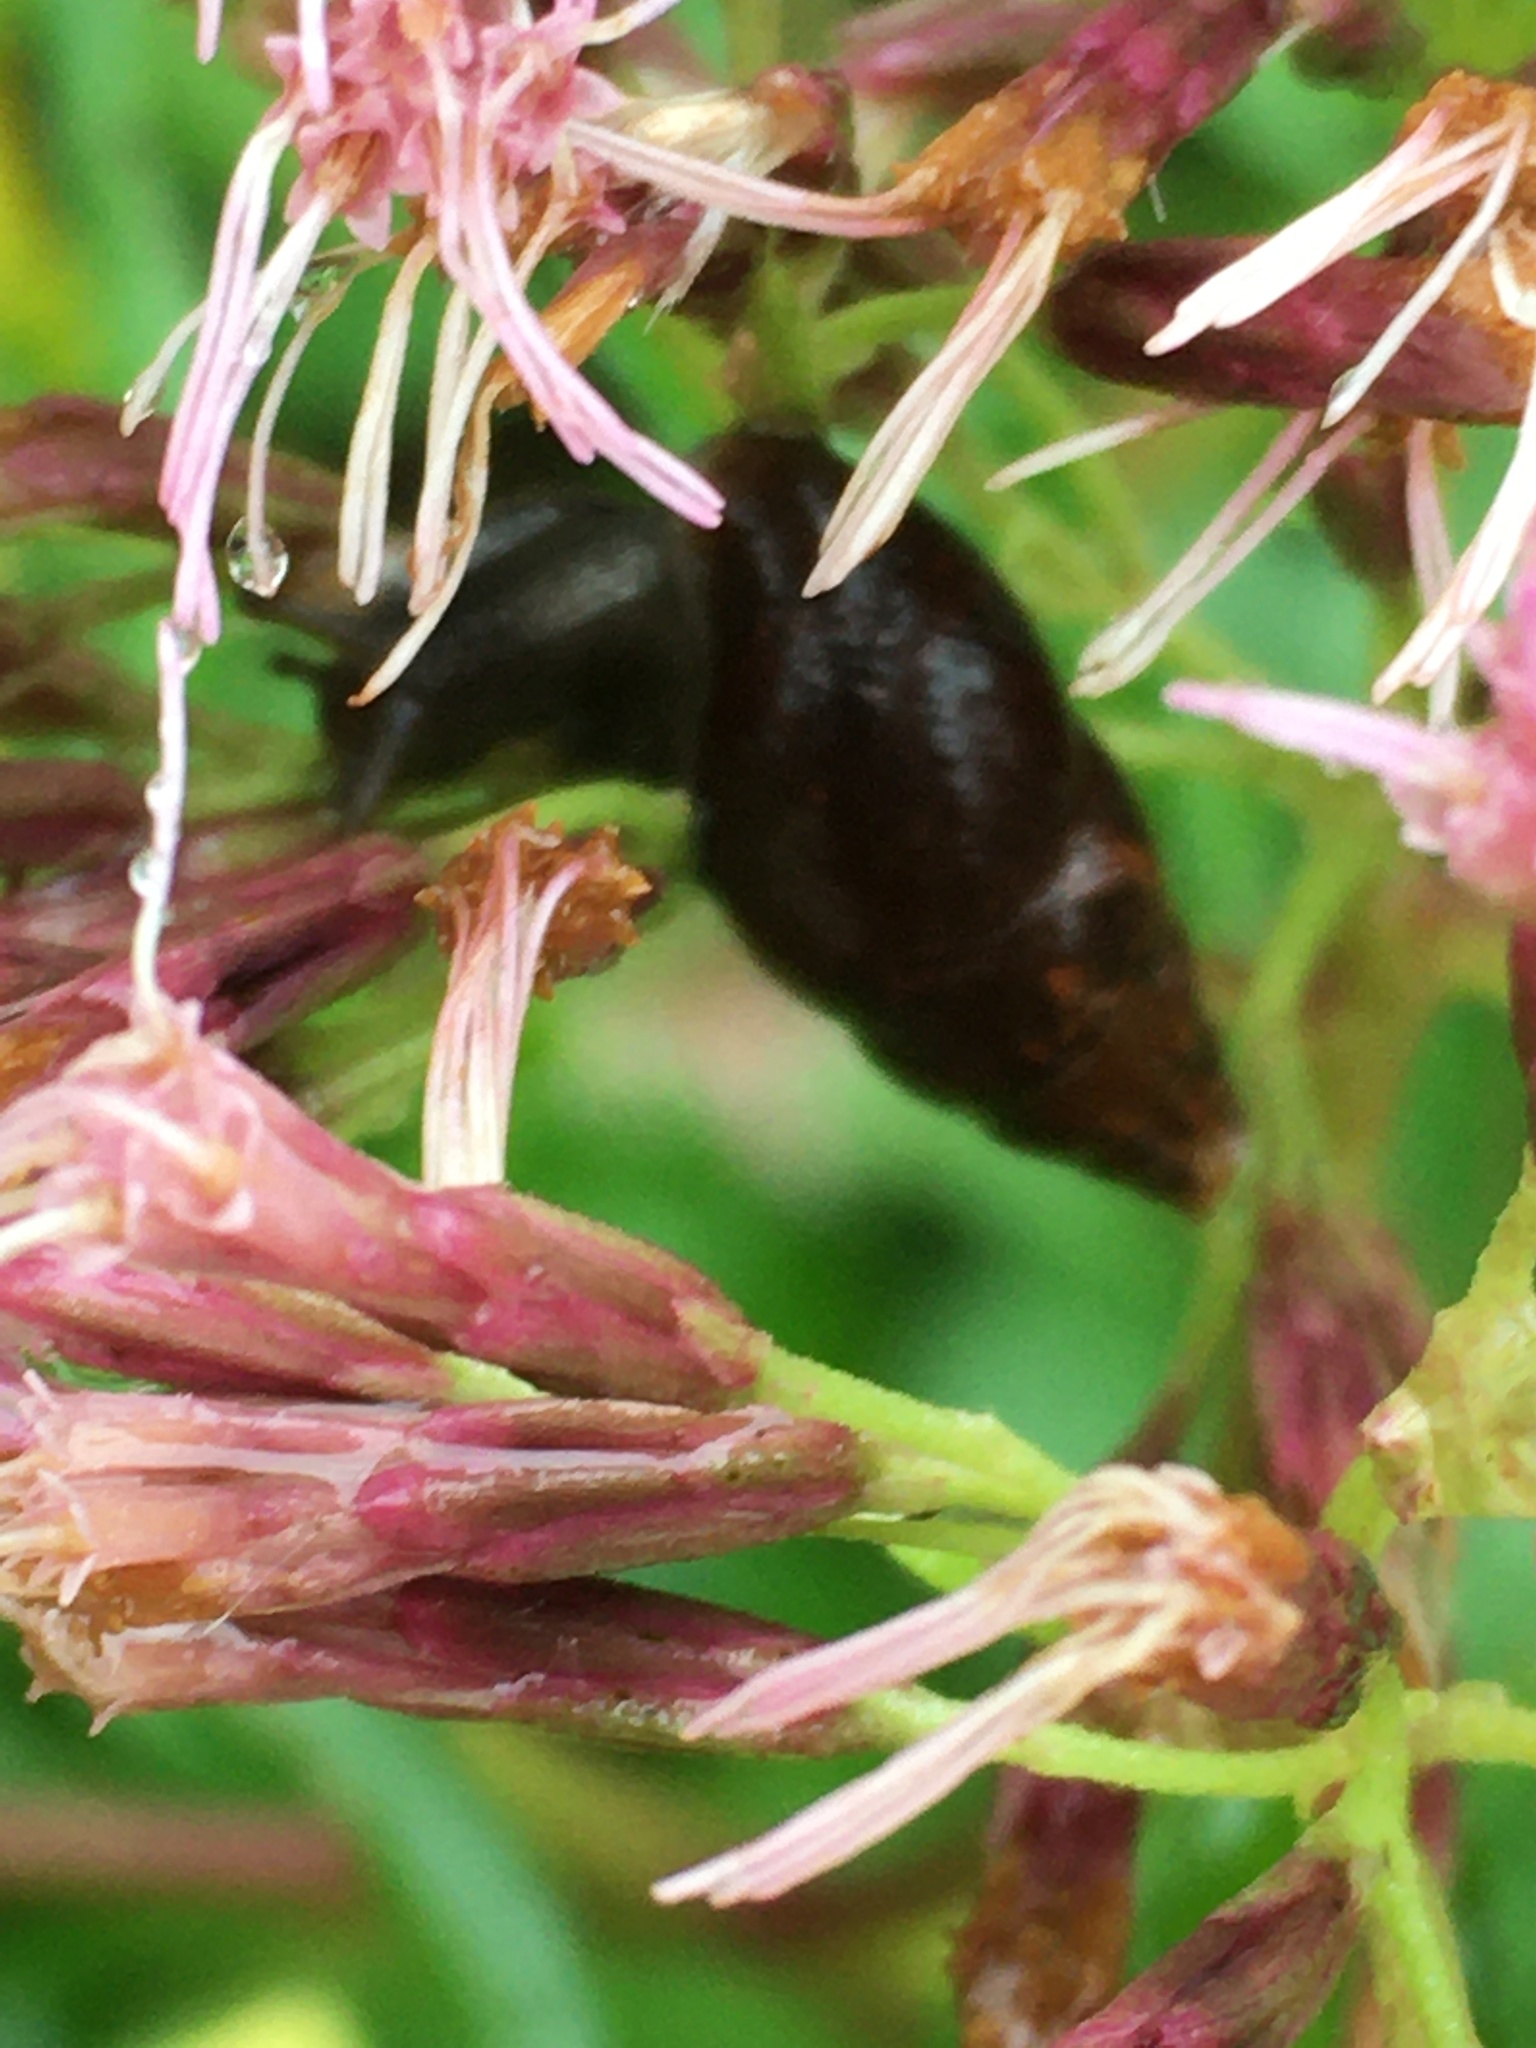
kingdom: Animalia
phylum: Mollusca
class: Gastropoda
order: Stylommatophora
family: Enidae
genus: Ena
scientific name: Ena montana
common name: Mountain bulin
